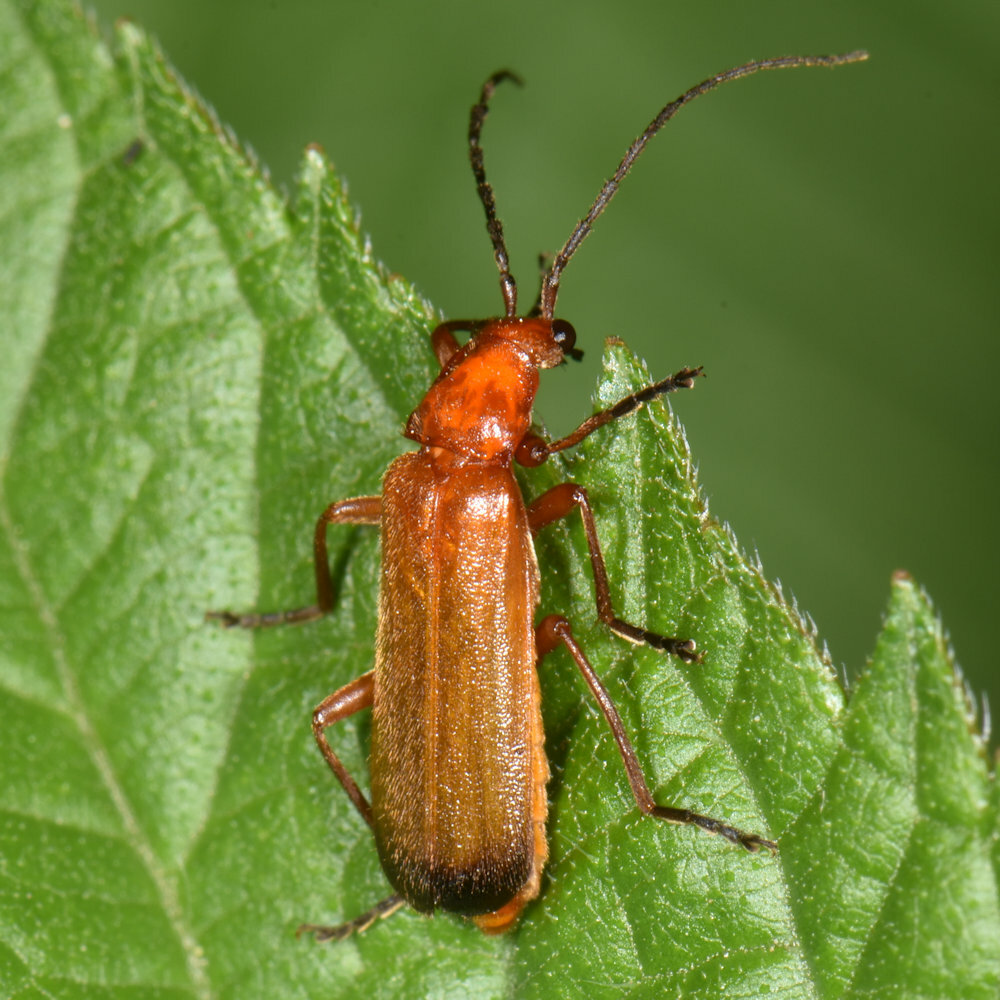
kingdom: Animalia
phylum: Arthropoda
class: Insecta
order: Coleoptera
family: Cantharidae
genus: Rhagonycha
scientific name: Rhagonycha fulva
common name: Common red soldier beetle
